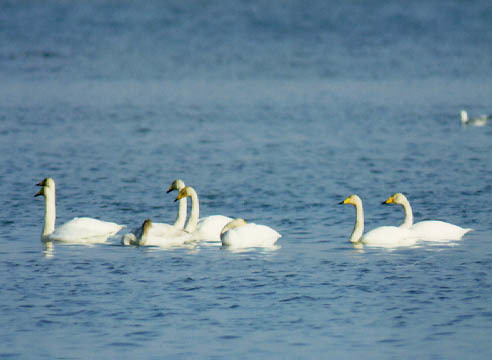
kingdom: Animalia
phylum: Chordata
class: Aves
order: Anseriformes
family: Anatidae
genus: Cygnus
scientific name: Cygnus cygnus
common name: Whooper swan
